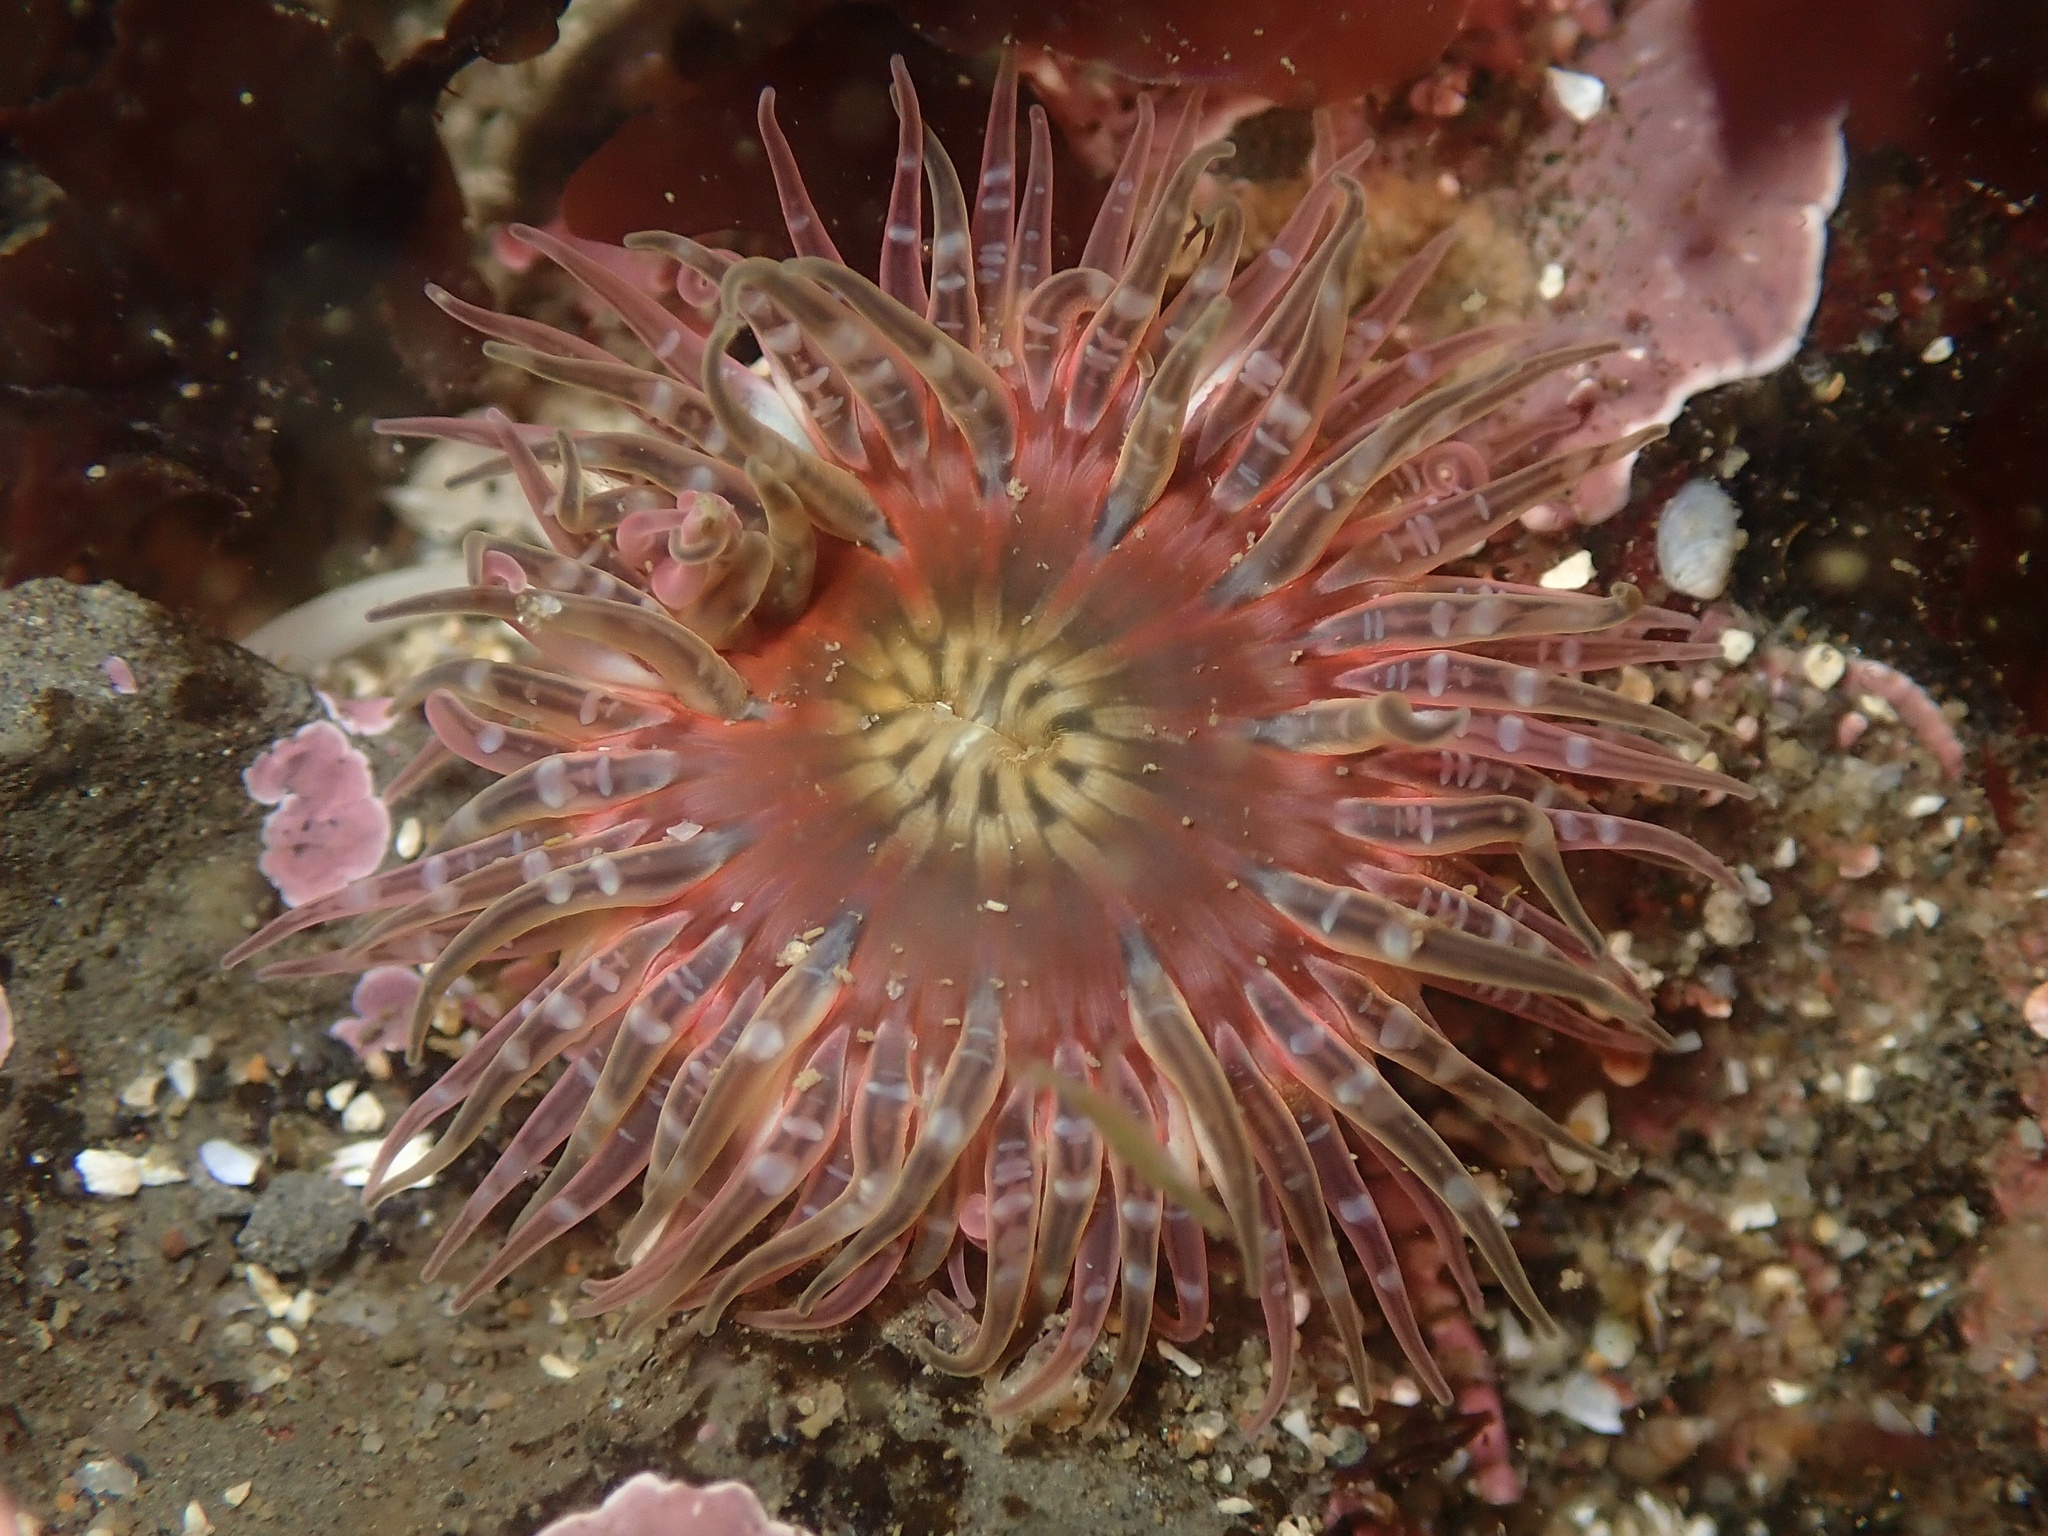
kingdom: Animalia
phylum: Cnidaria
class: Anthozoa
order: Actiniaria
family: Actiniidae
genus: Anthopleura
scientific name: Anthopleura artemisia
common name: Buried sea anemone
